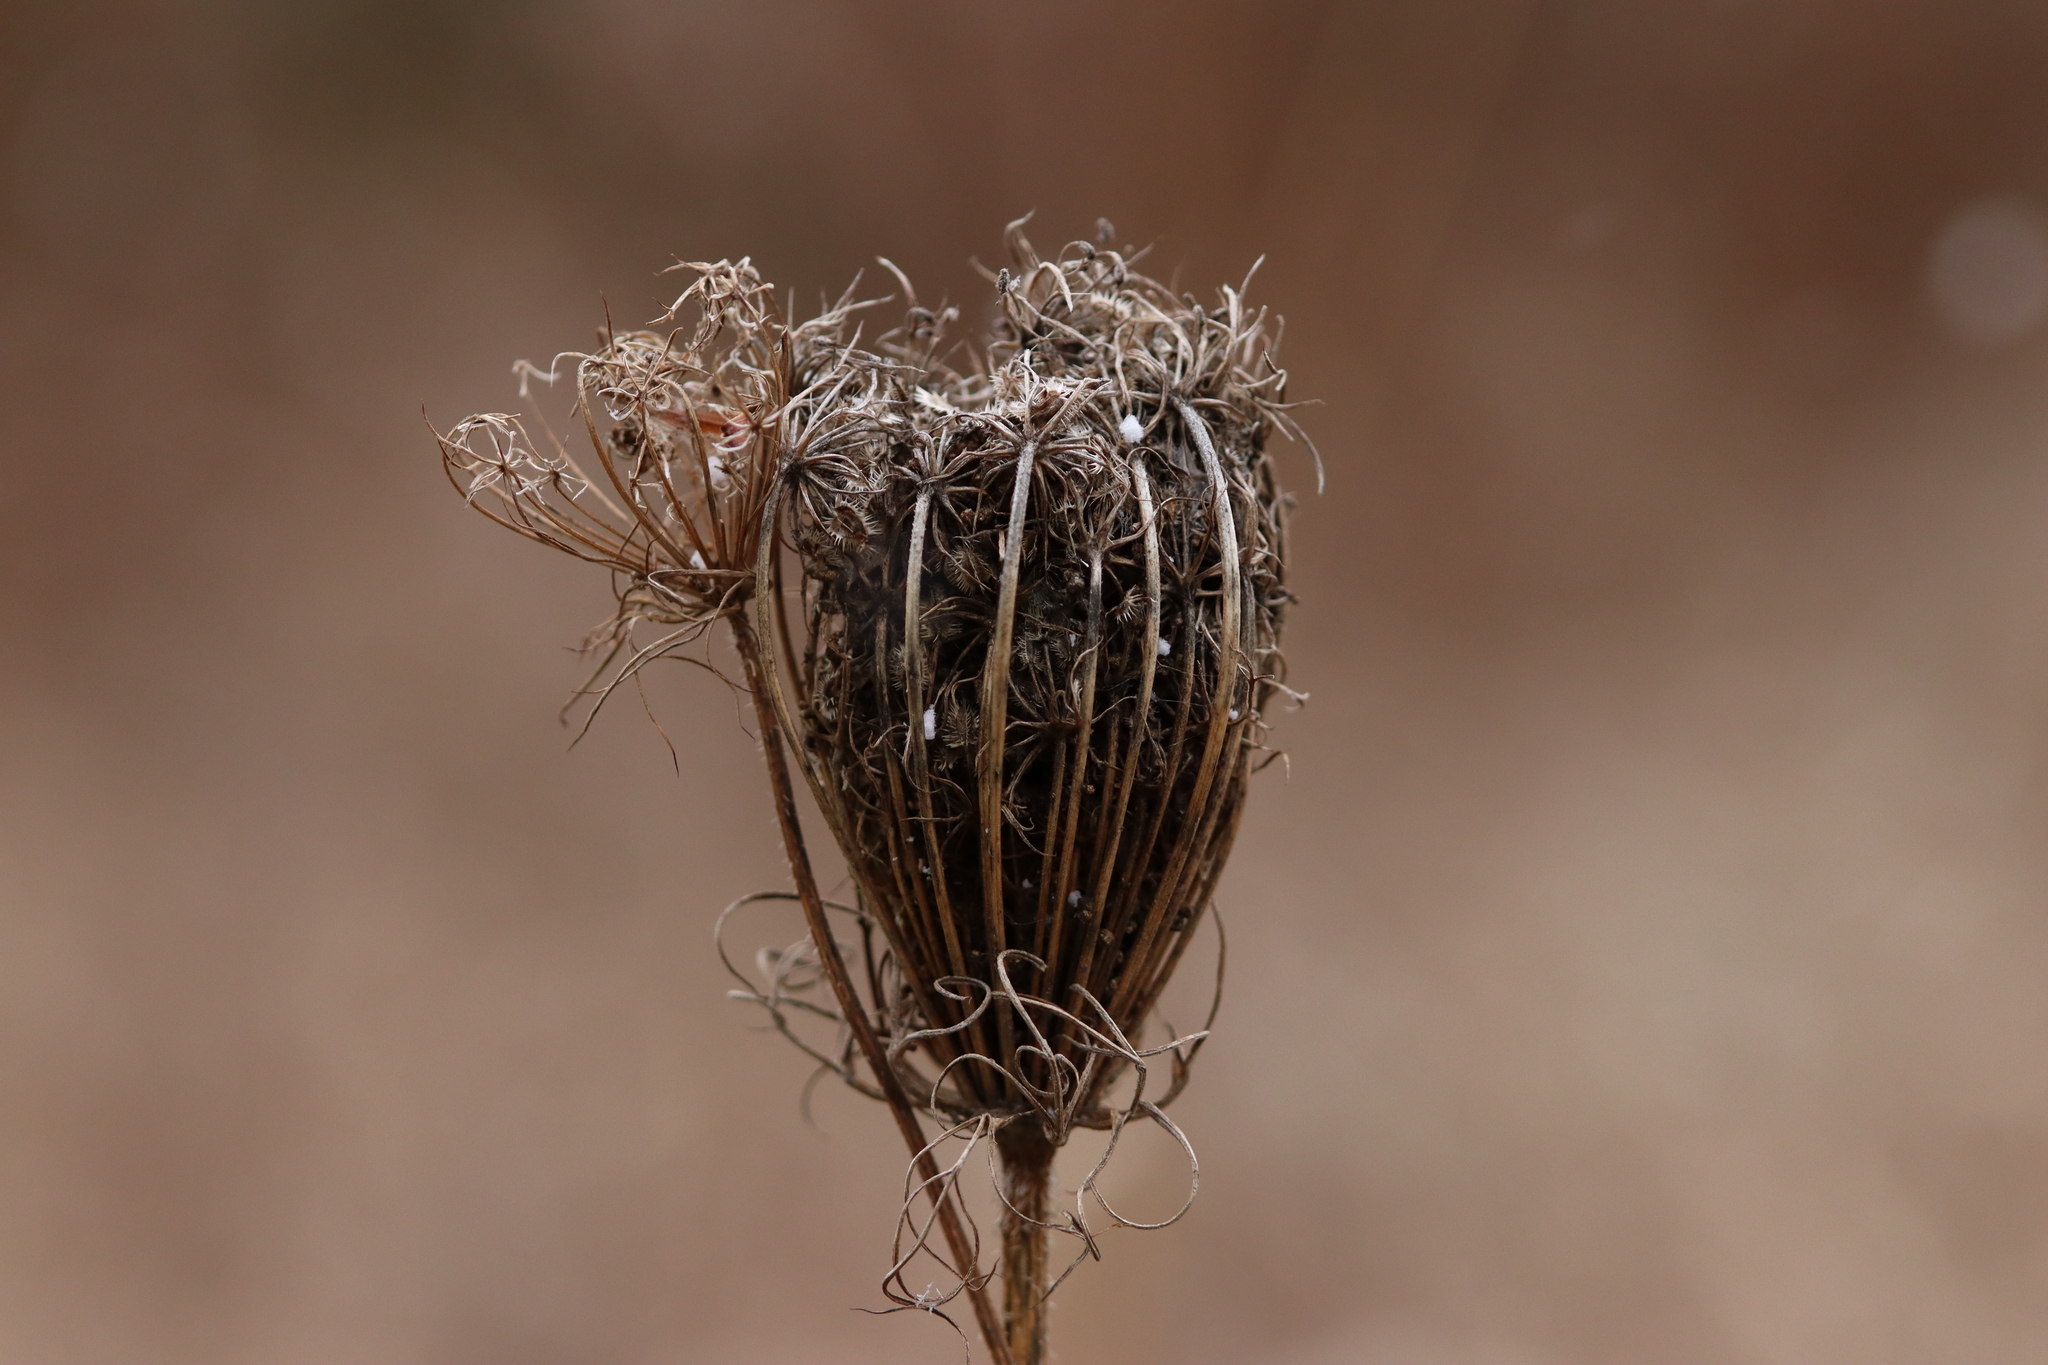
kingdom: Plantae
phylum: Tracheophyta
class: Magnoliopsida
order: Apiales
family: Apiaceae
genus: Daucus
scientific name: Daucus carota
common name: Wild carrot
